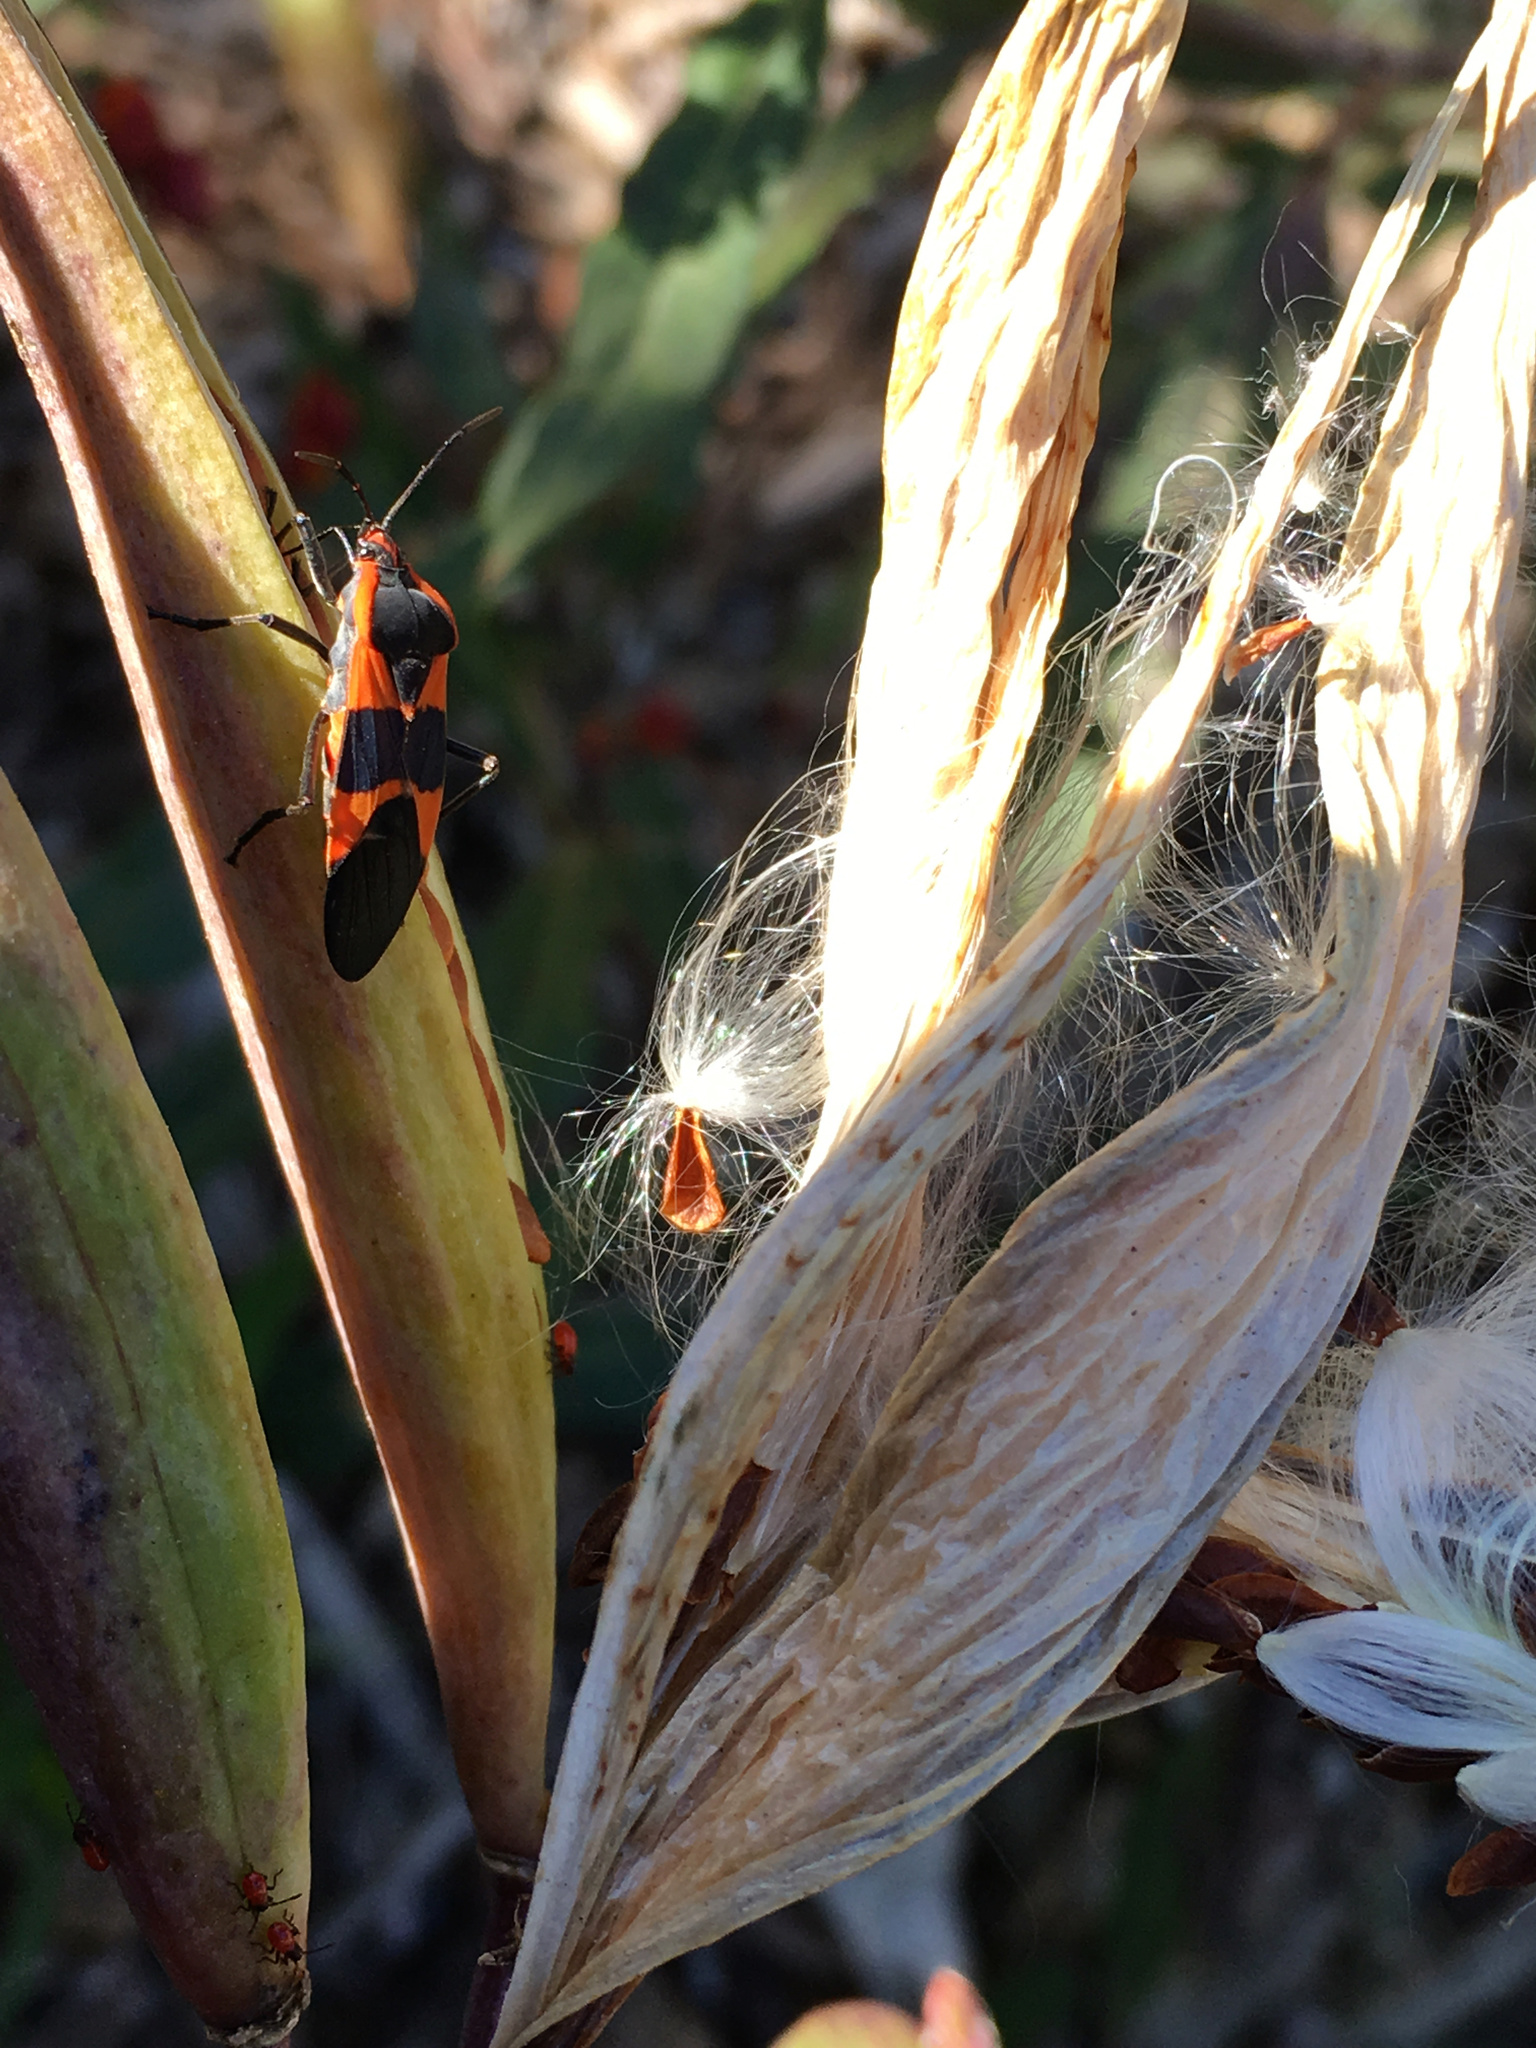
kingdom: Animalia
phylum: Arthropoda
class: Insecta
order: Hemiptera
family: Lygaeidae
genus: Oncopeltus
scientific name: Oncopeltus fasciatus
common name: Large milkweed bug
